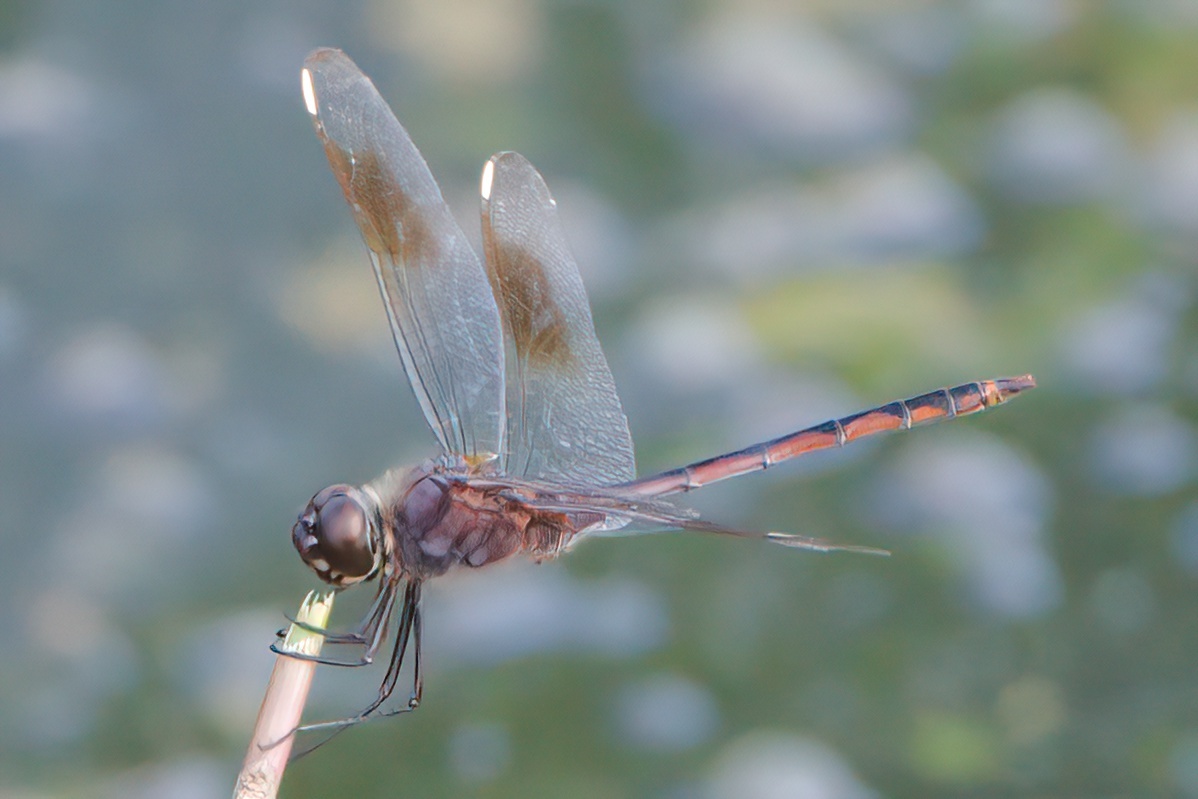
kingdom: Animalia
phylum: Arthropoda
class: Insecta
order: Odonata
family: Libellulidae
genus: Brachymesia
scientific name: Brachymesia gravida
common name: Four-spotted pennant
